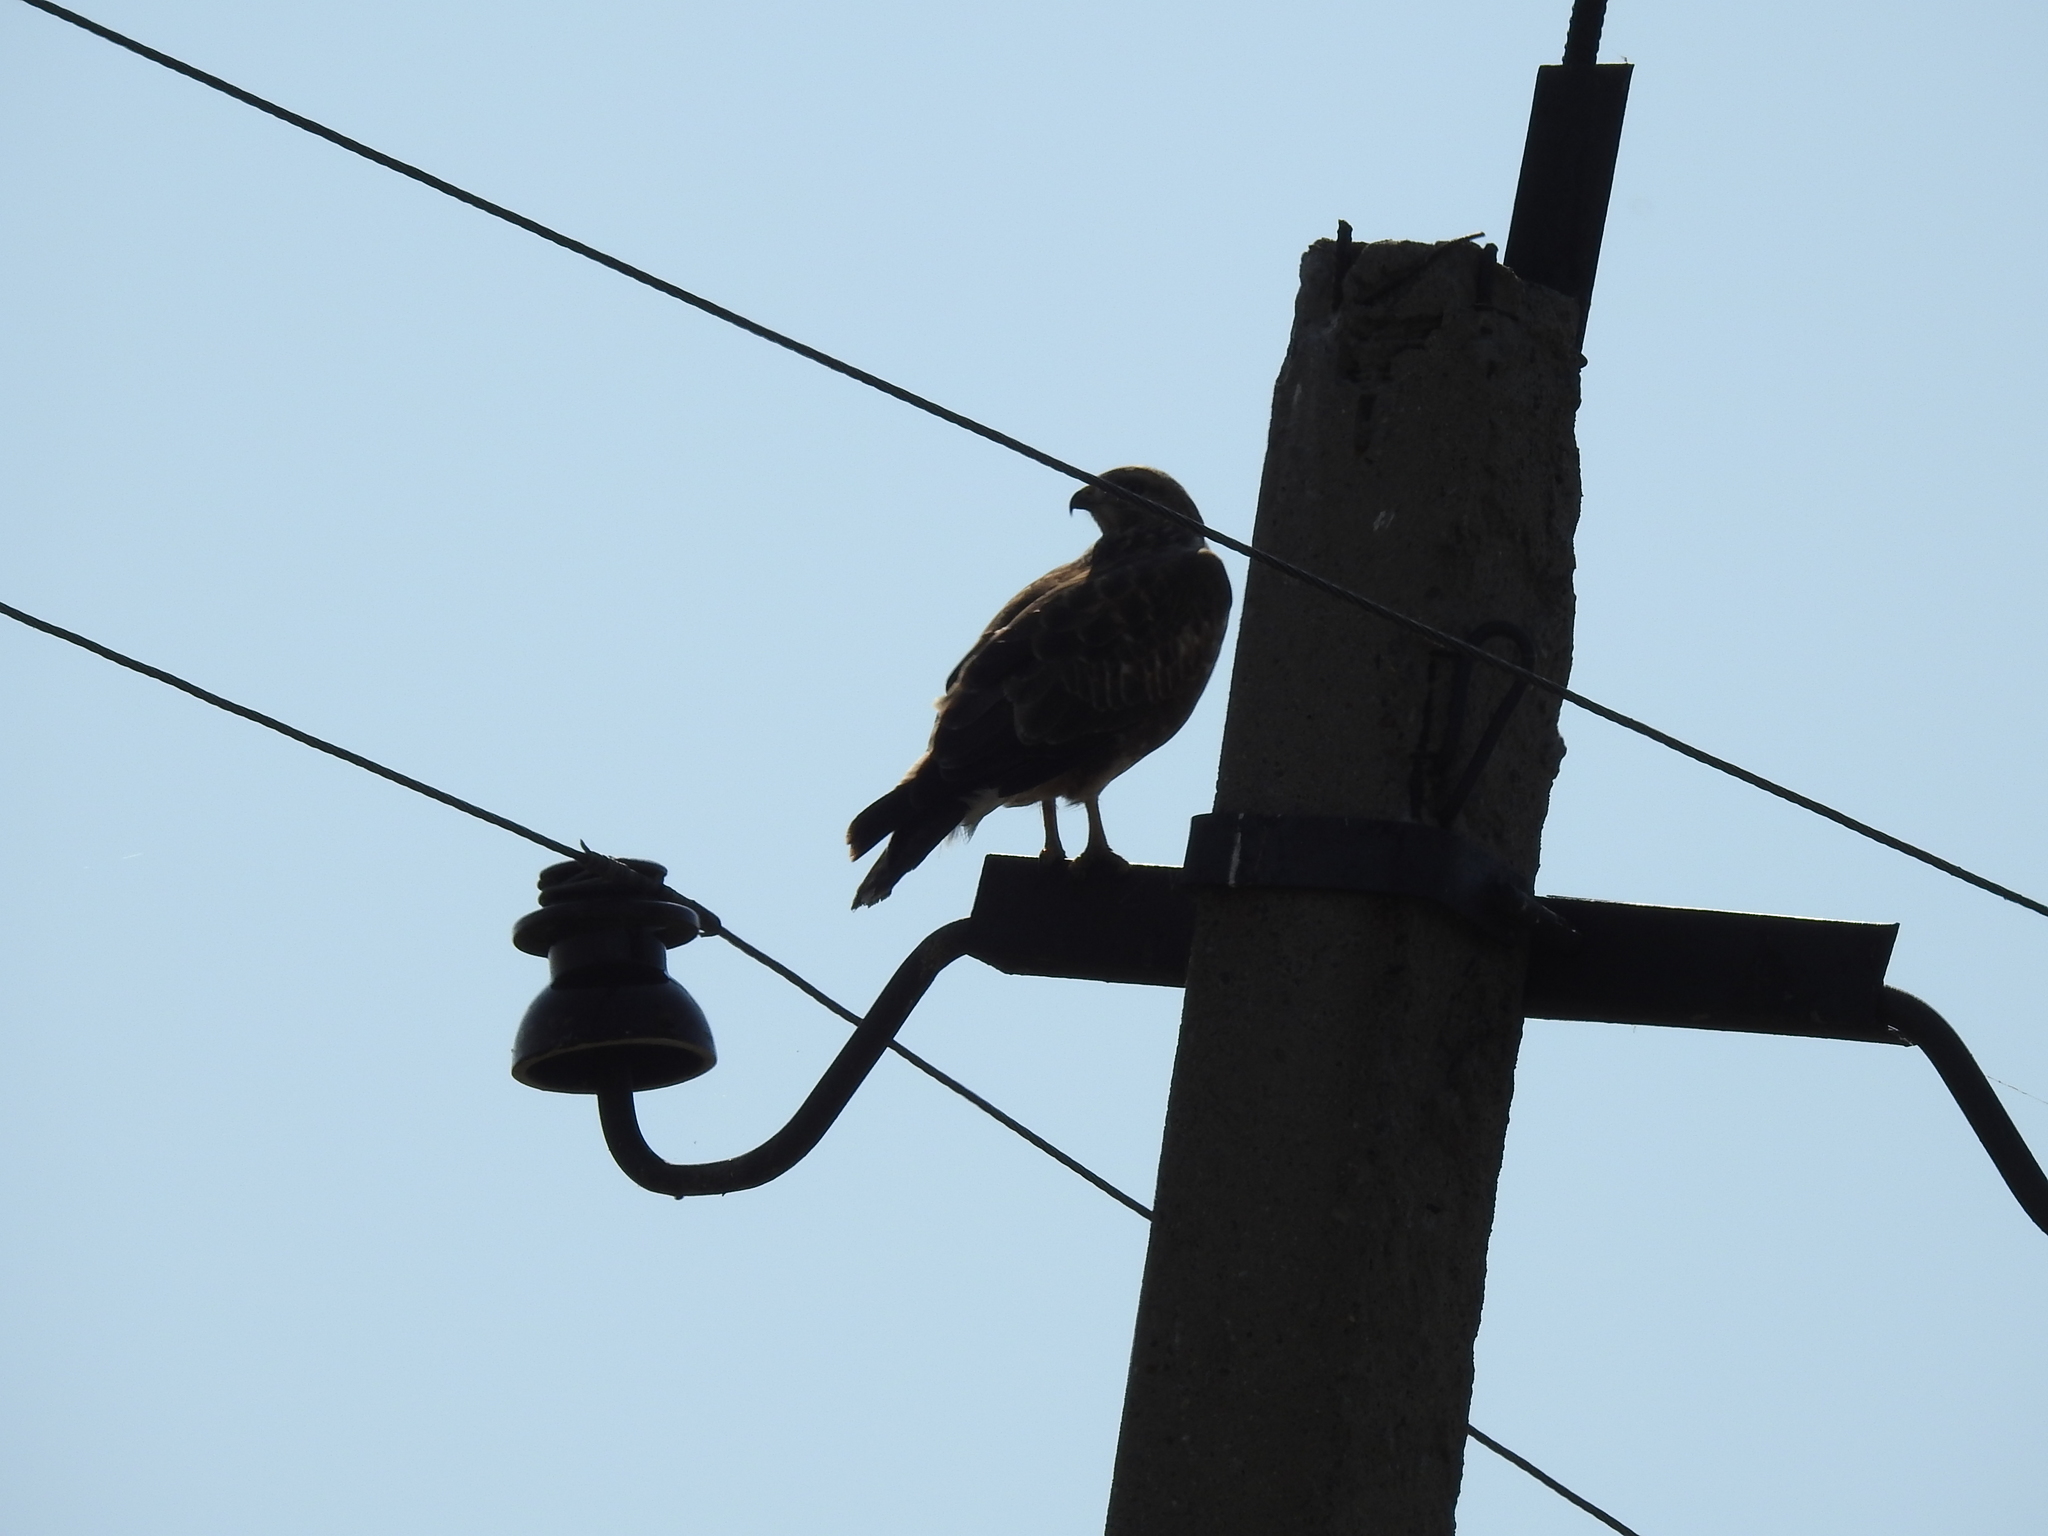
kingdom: Animalia
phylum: Chordata
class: Aves
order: Accipitriformes
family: Accipitridae
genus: Buteo
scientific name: Buteo buteo
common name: Common buzzard
